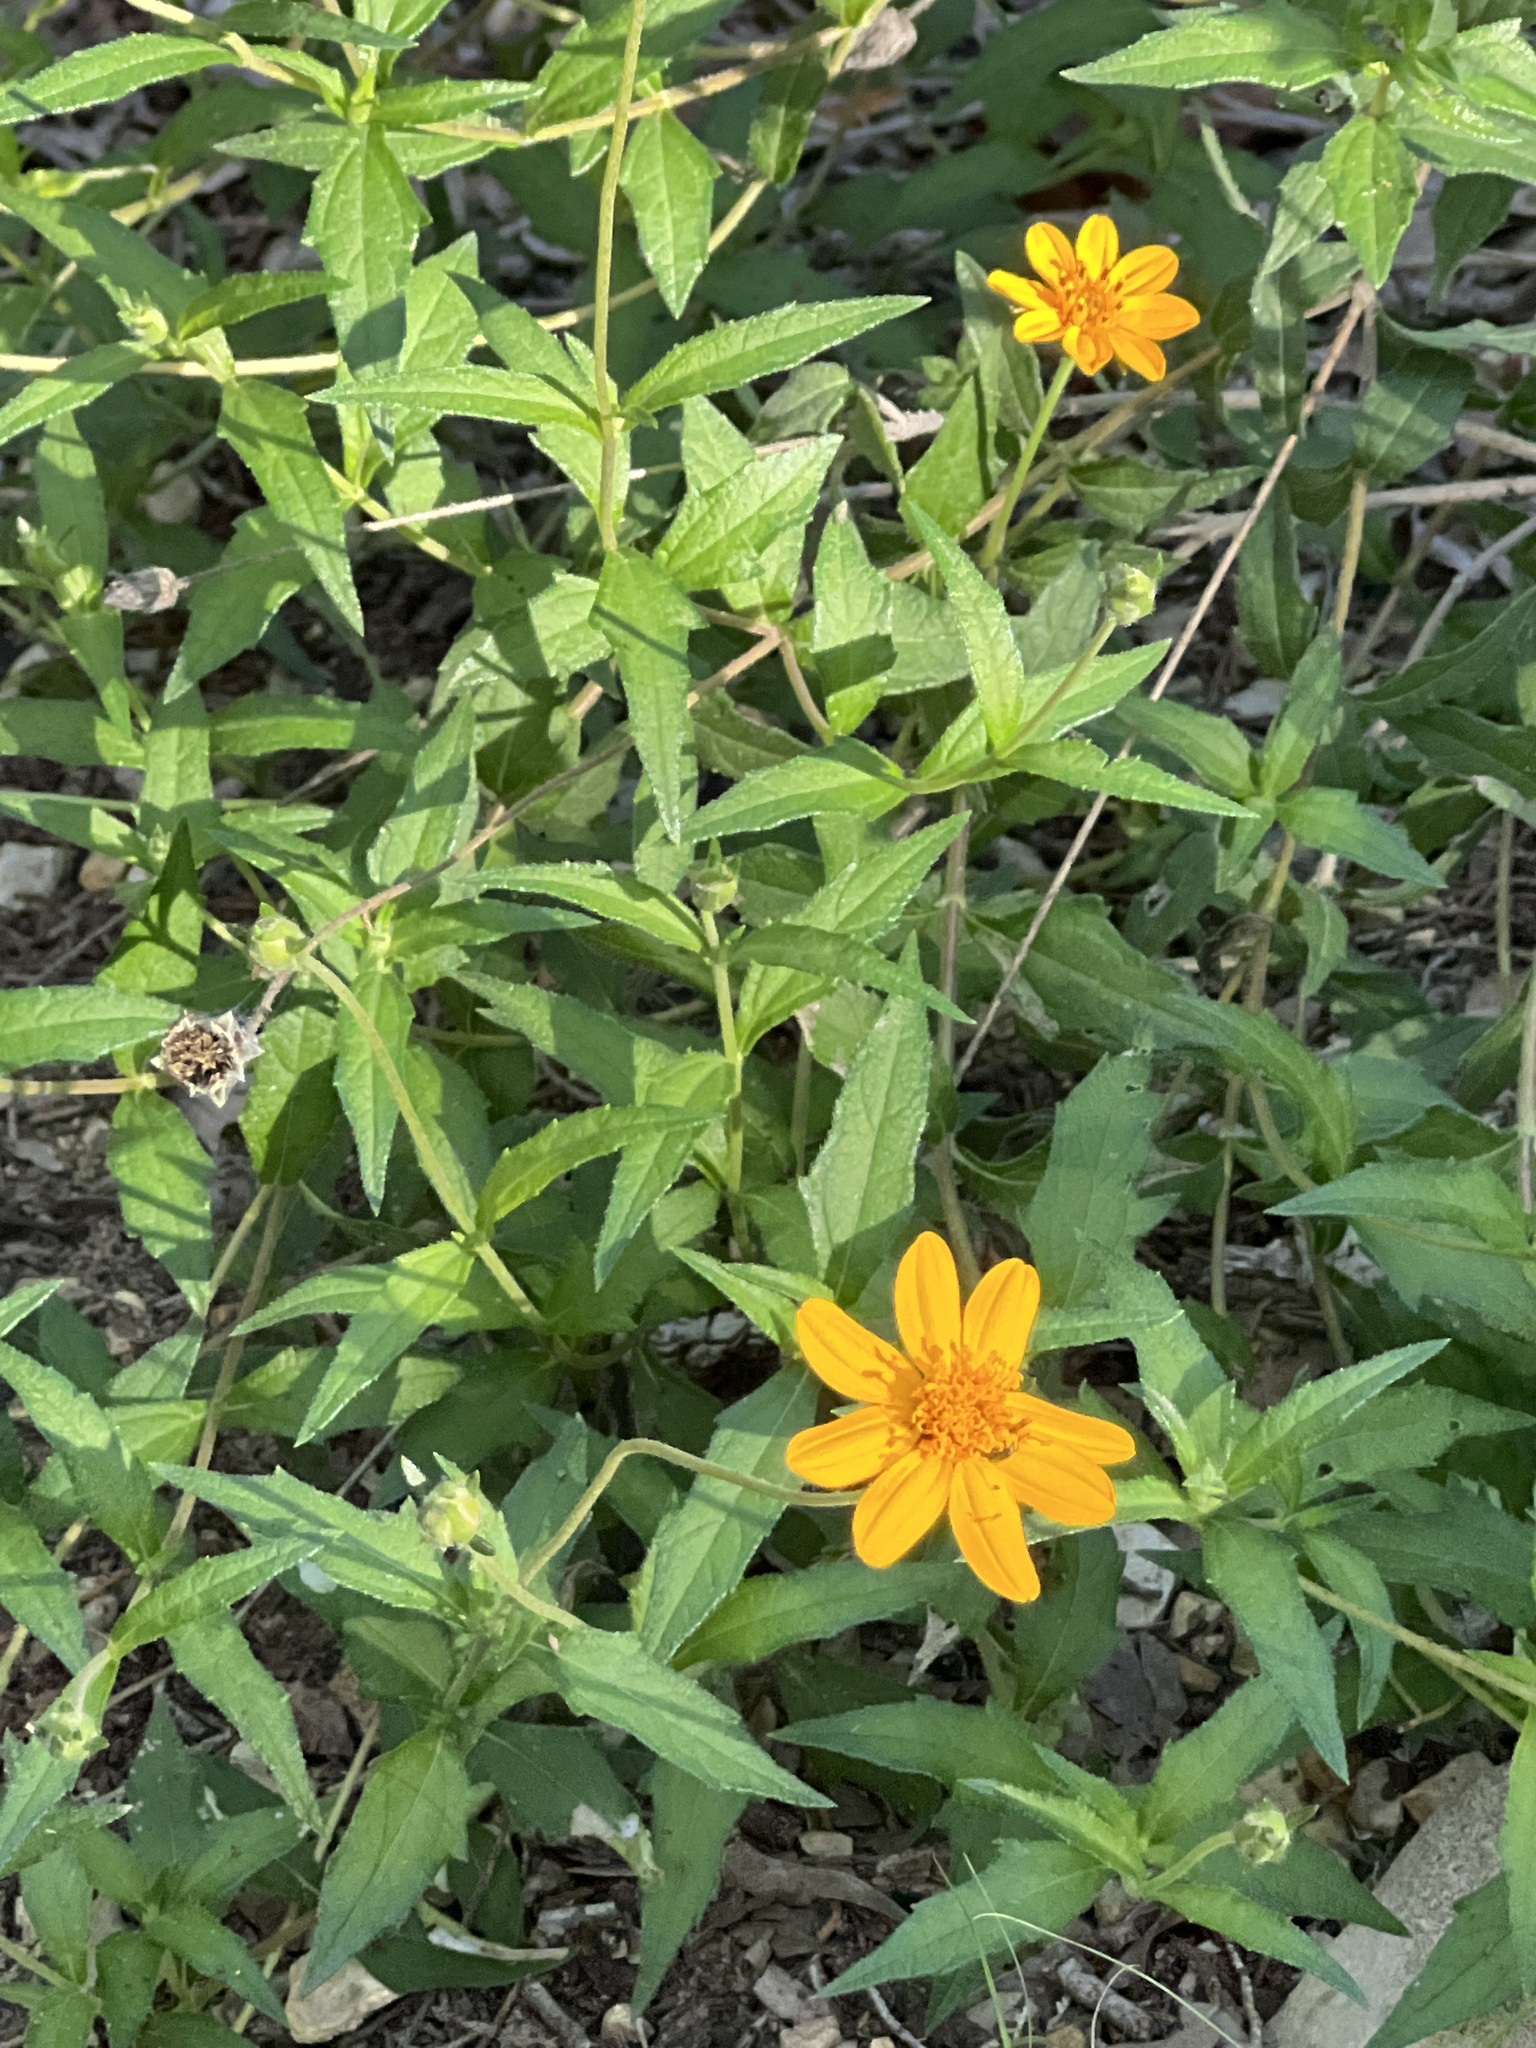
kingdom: Plantae
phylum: Tracheophyta
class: Magnoliopsida
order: Asterales
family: Asteraceae
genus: Wedelia
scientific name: Wedelia acapulcensis
